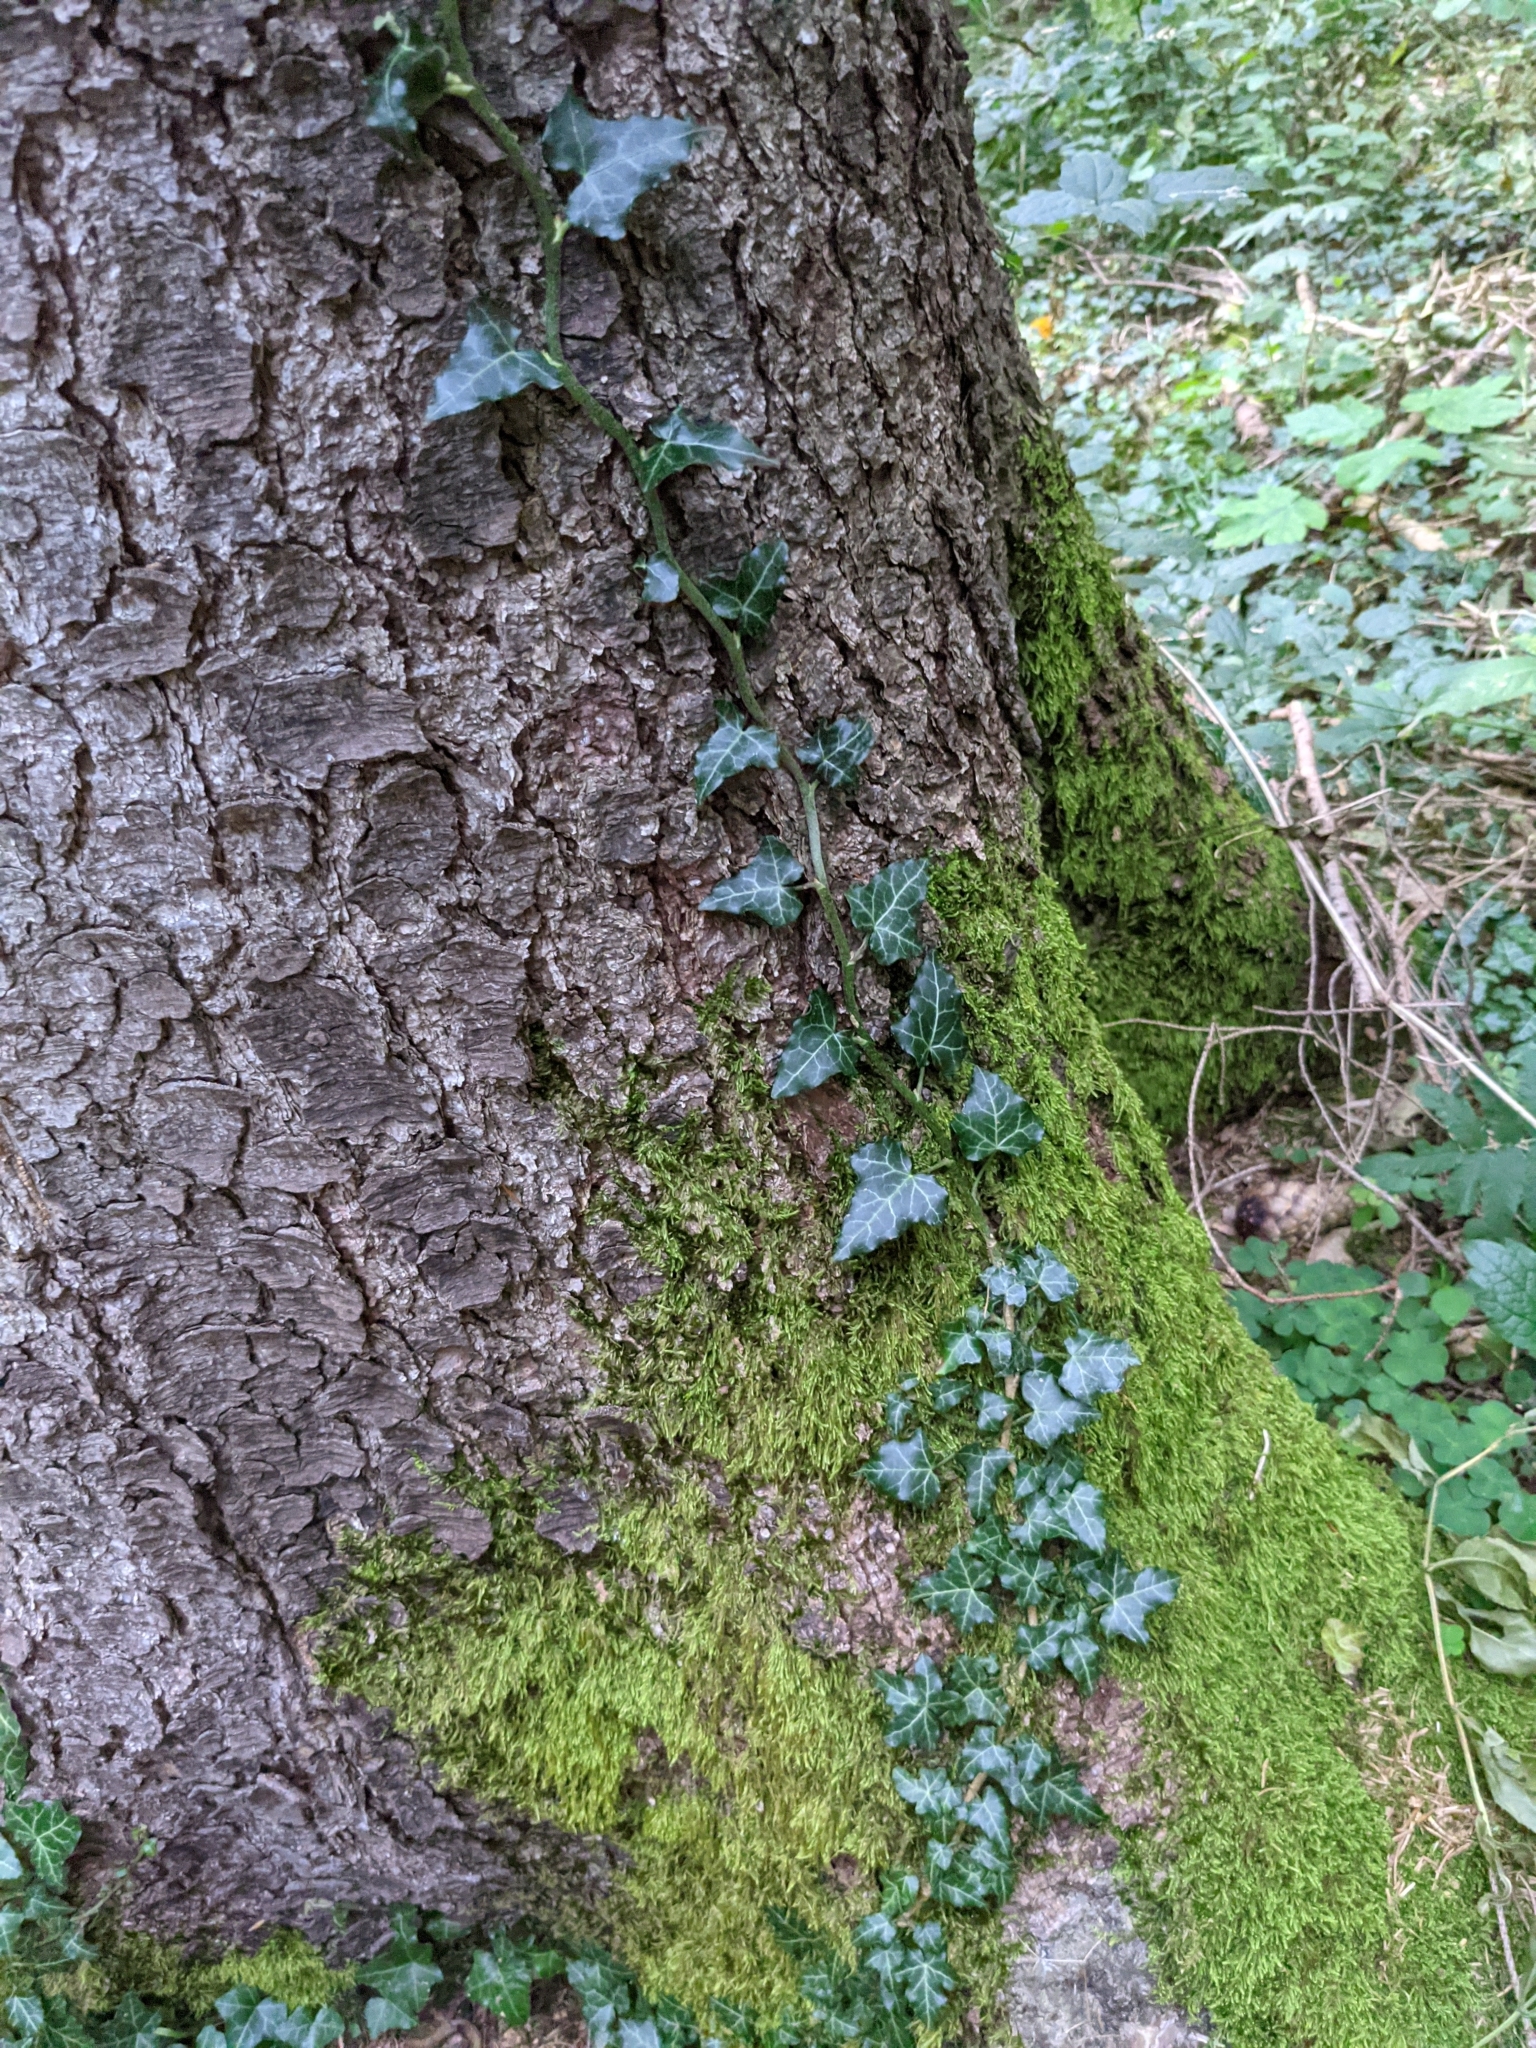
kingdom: Plantae
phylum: Tracheophyta
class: Magnoliopsida
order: Apiales
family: Araliaceae
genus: Hedera
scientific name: Hedera helix
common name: Ivy
